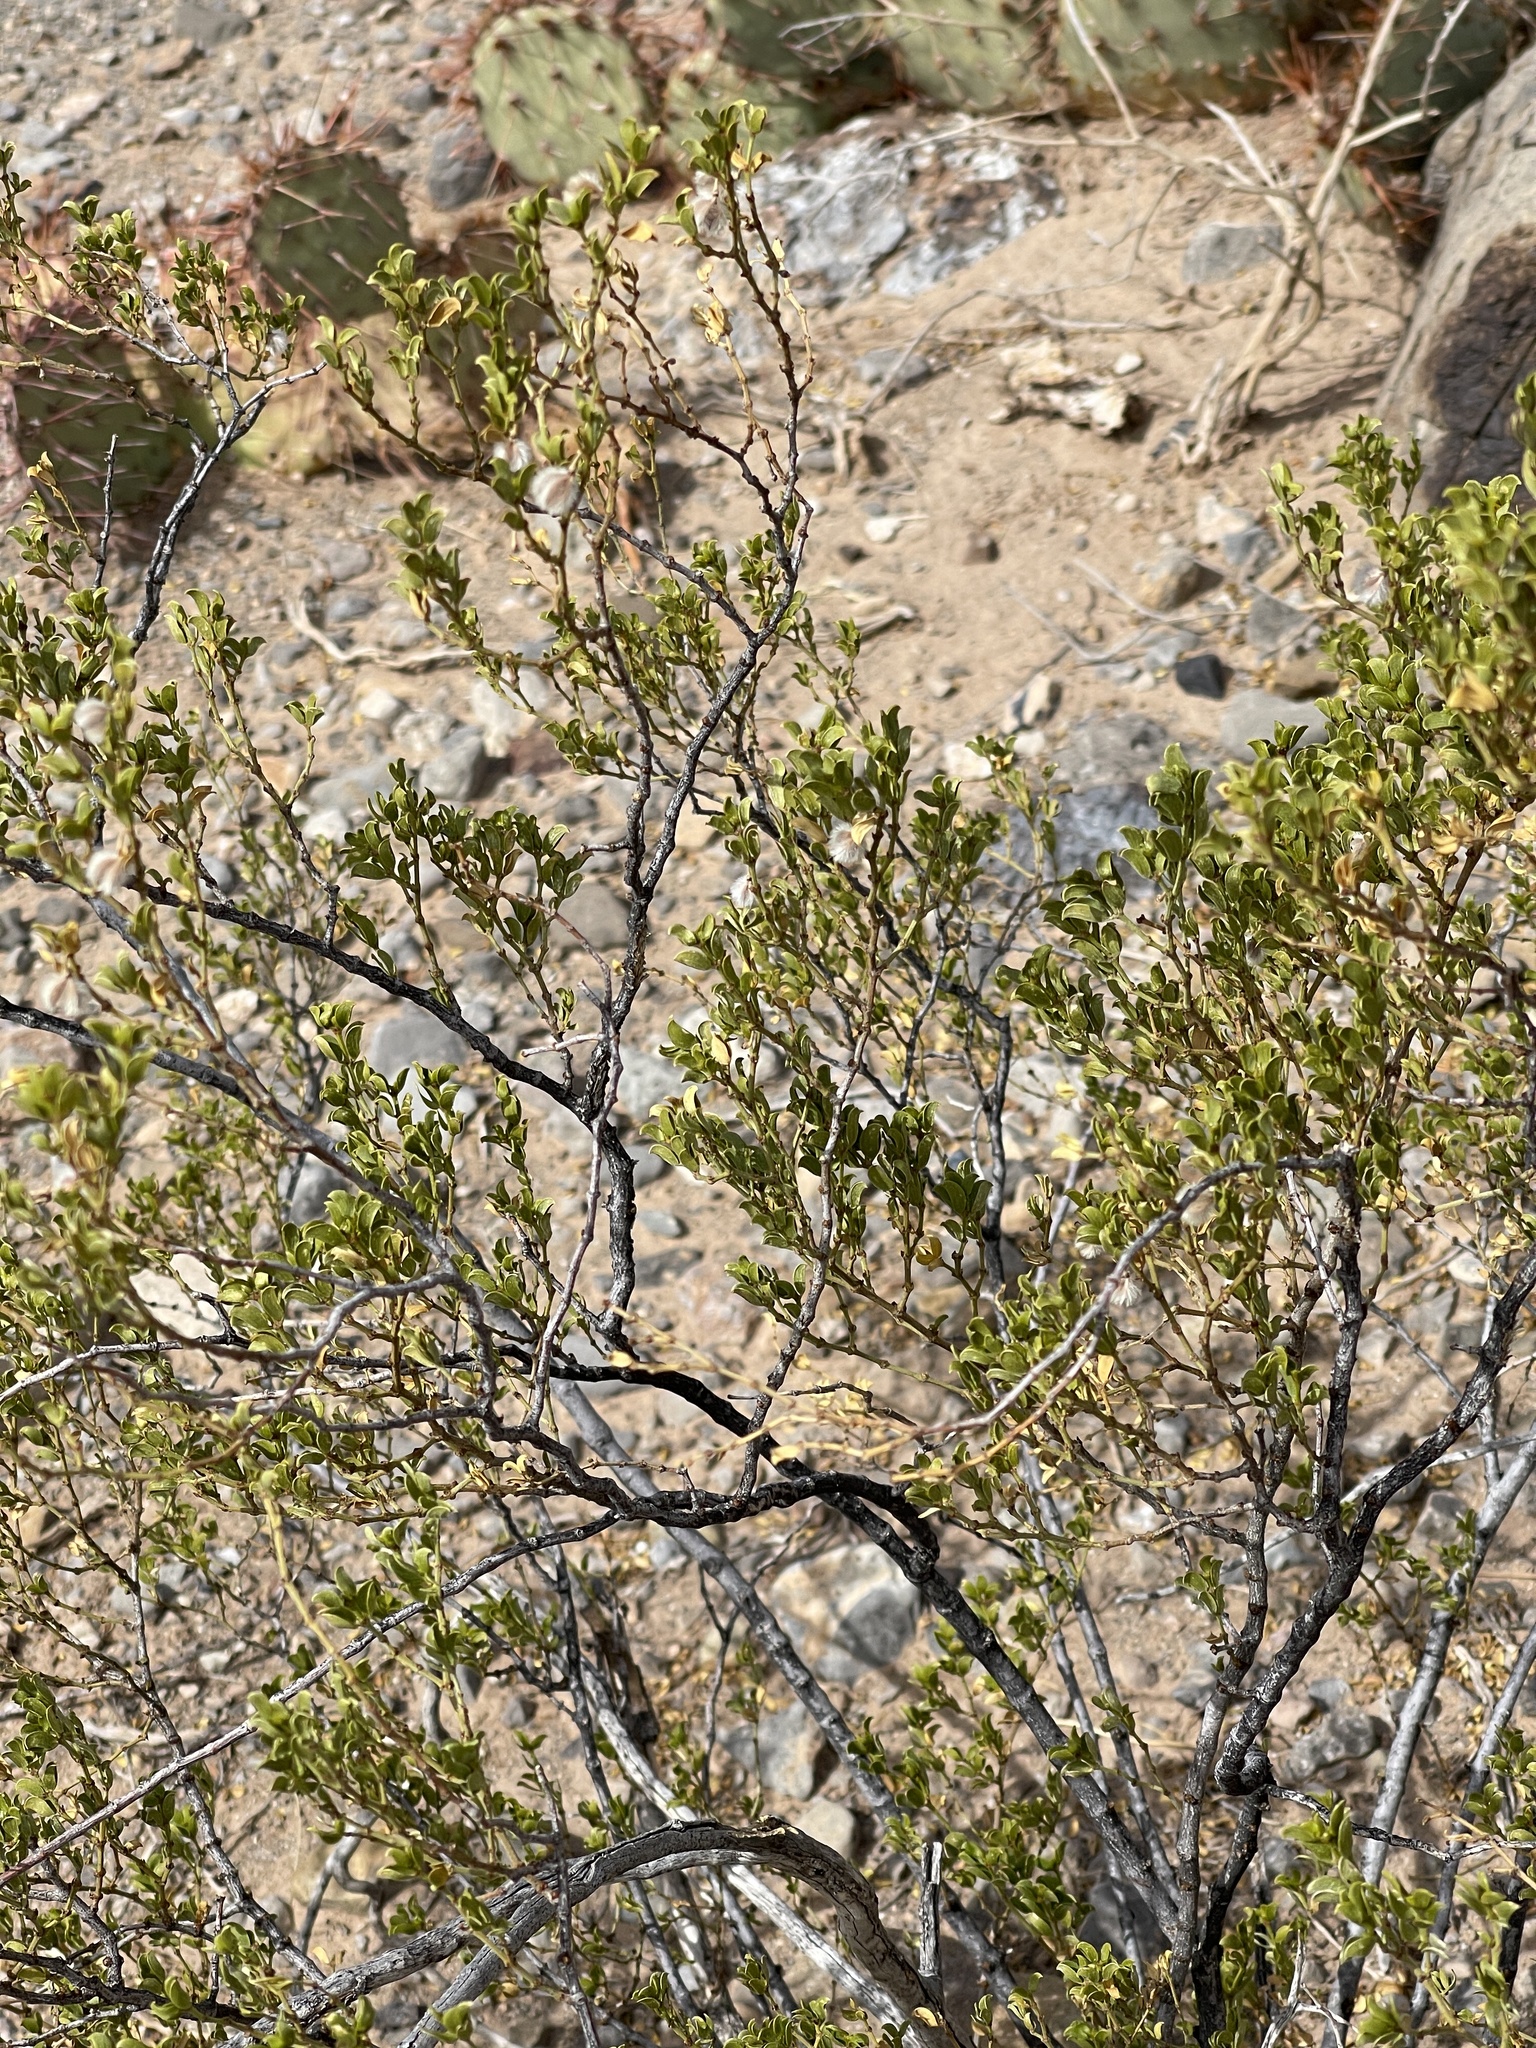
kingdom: Plantae
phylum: Tracheophyta
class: Magnoliopsida
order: Zygophyllales
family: Zygophyllaceae
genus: Larrea
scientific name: Larrea tridentata
